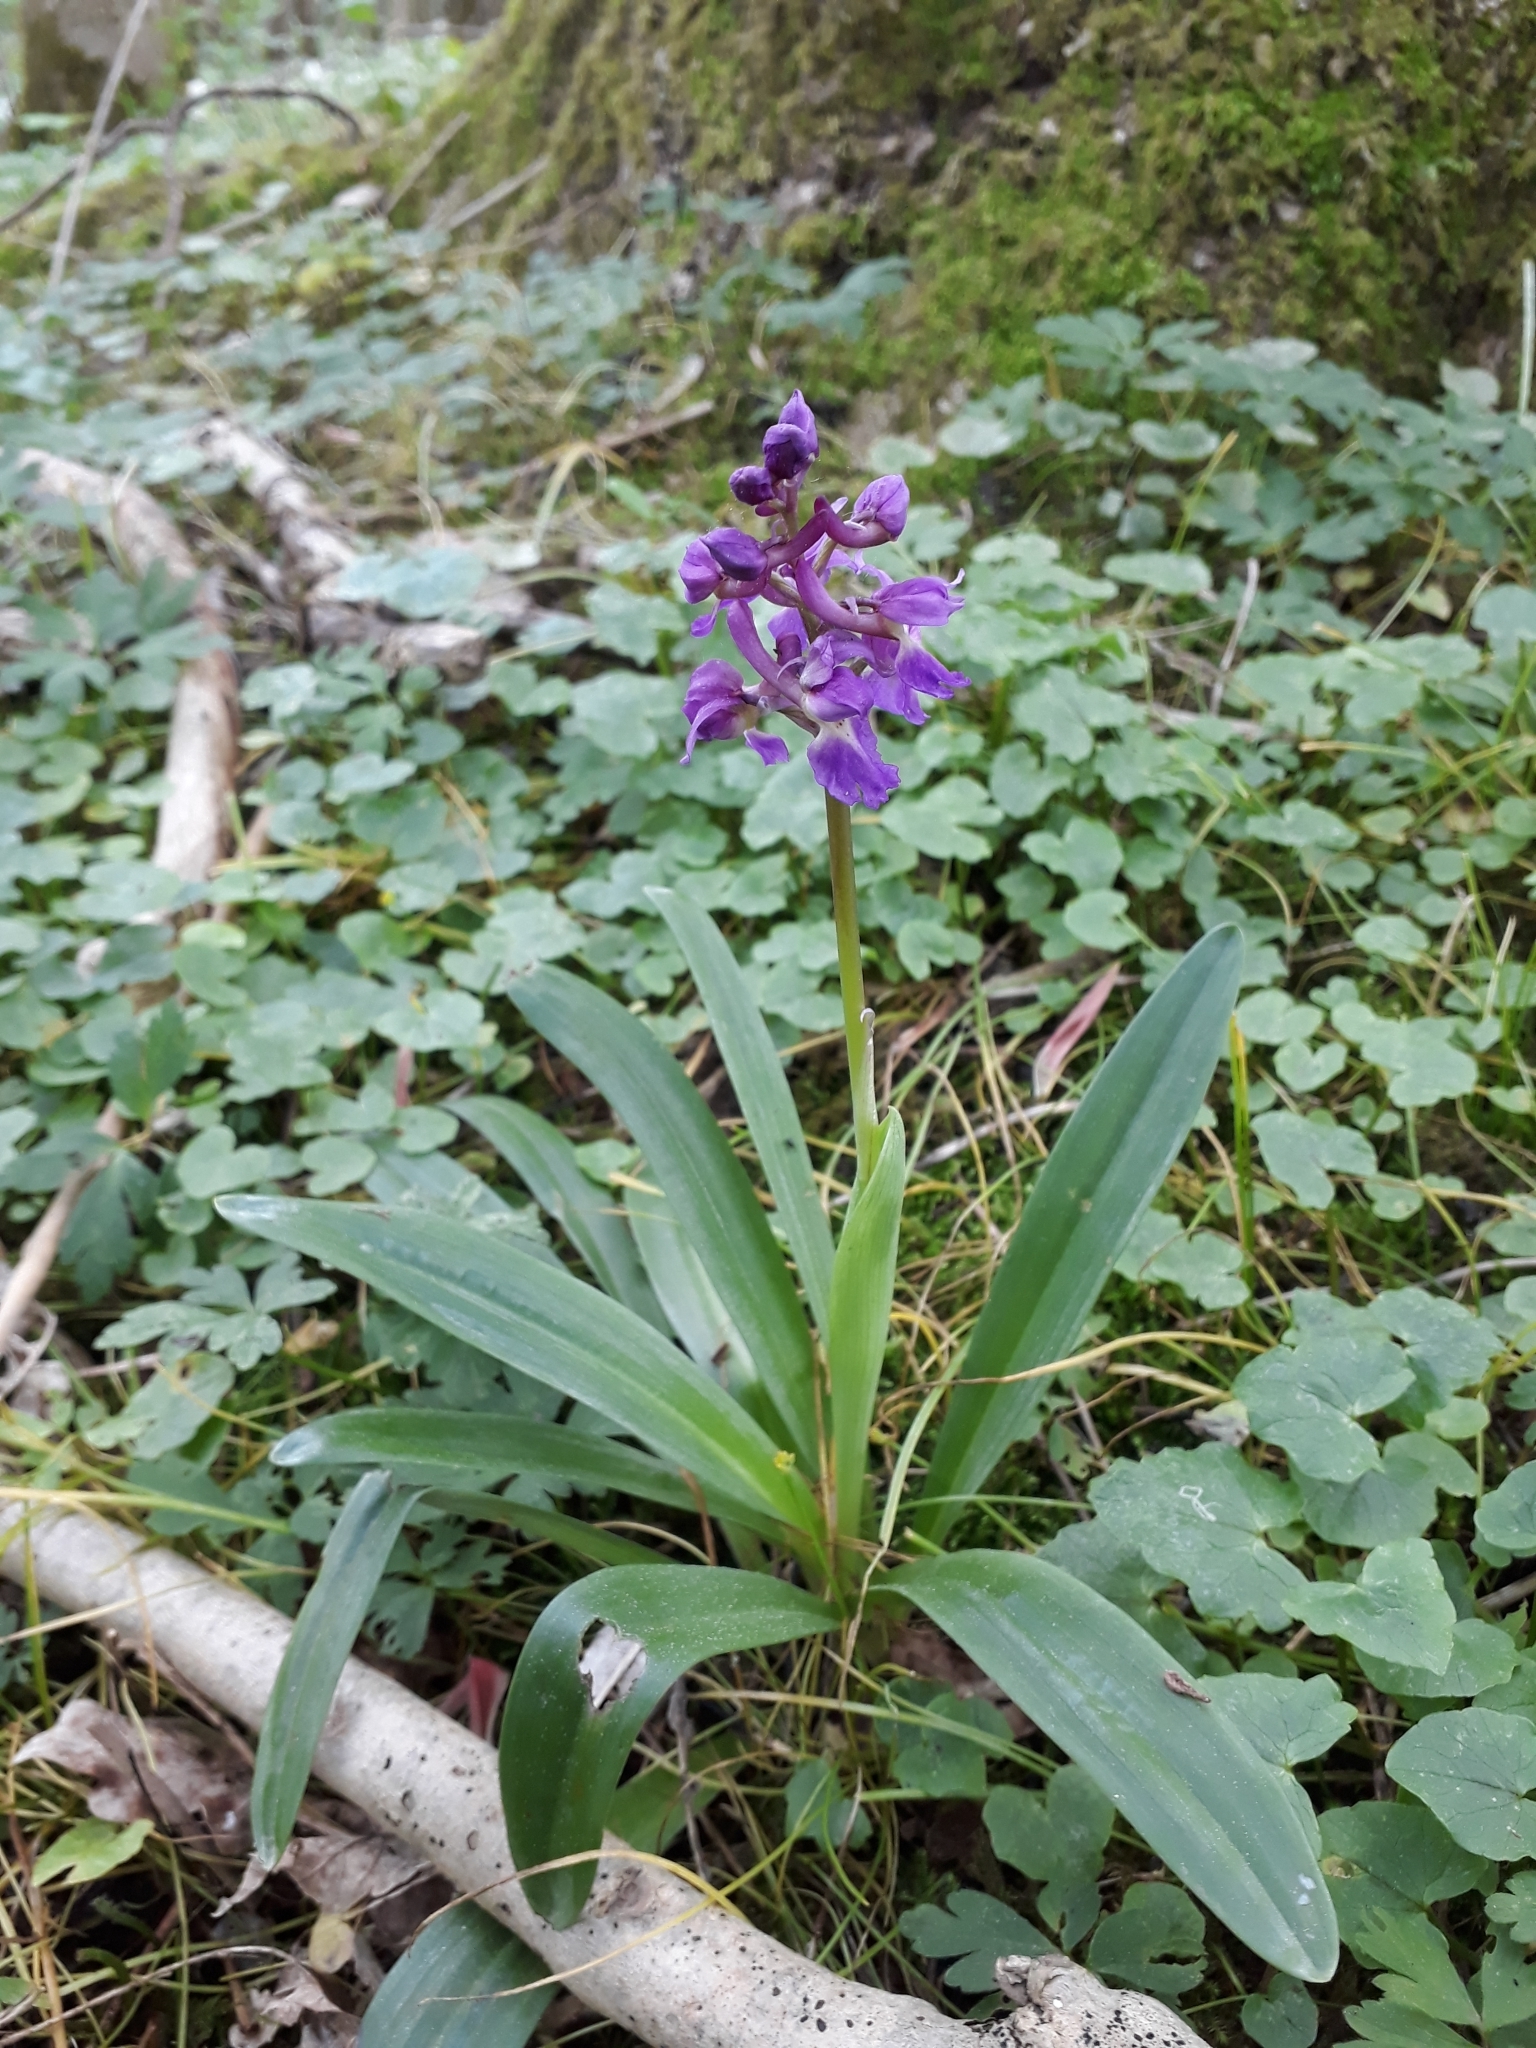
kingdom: Plantae
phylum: Tracheophyta
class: Liliopsida
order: Asparagales
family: Orchidaceae
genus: Orchis
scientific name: Orchis mascula
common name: Early-purple orchid
